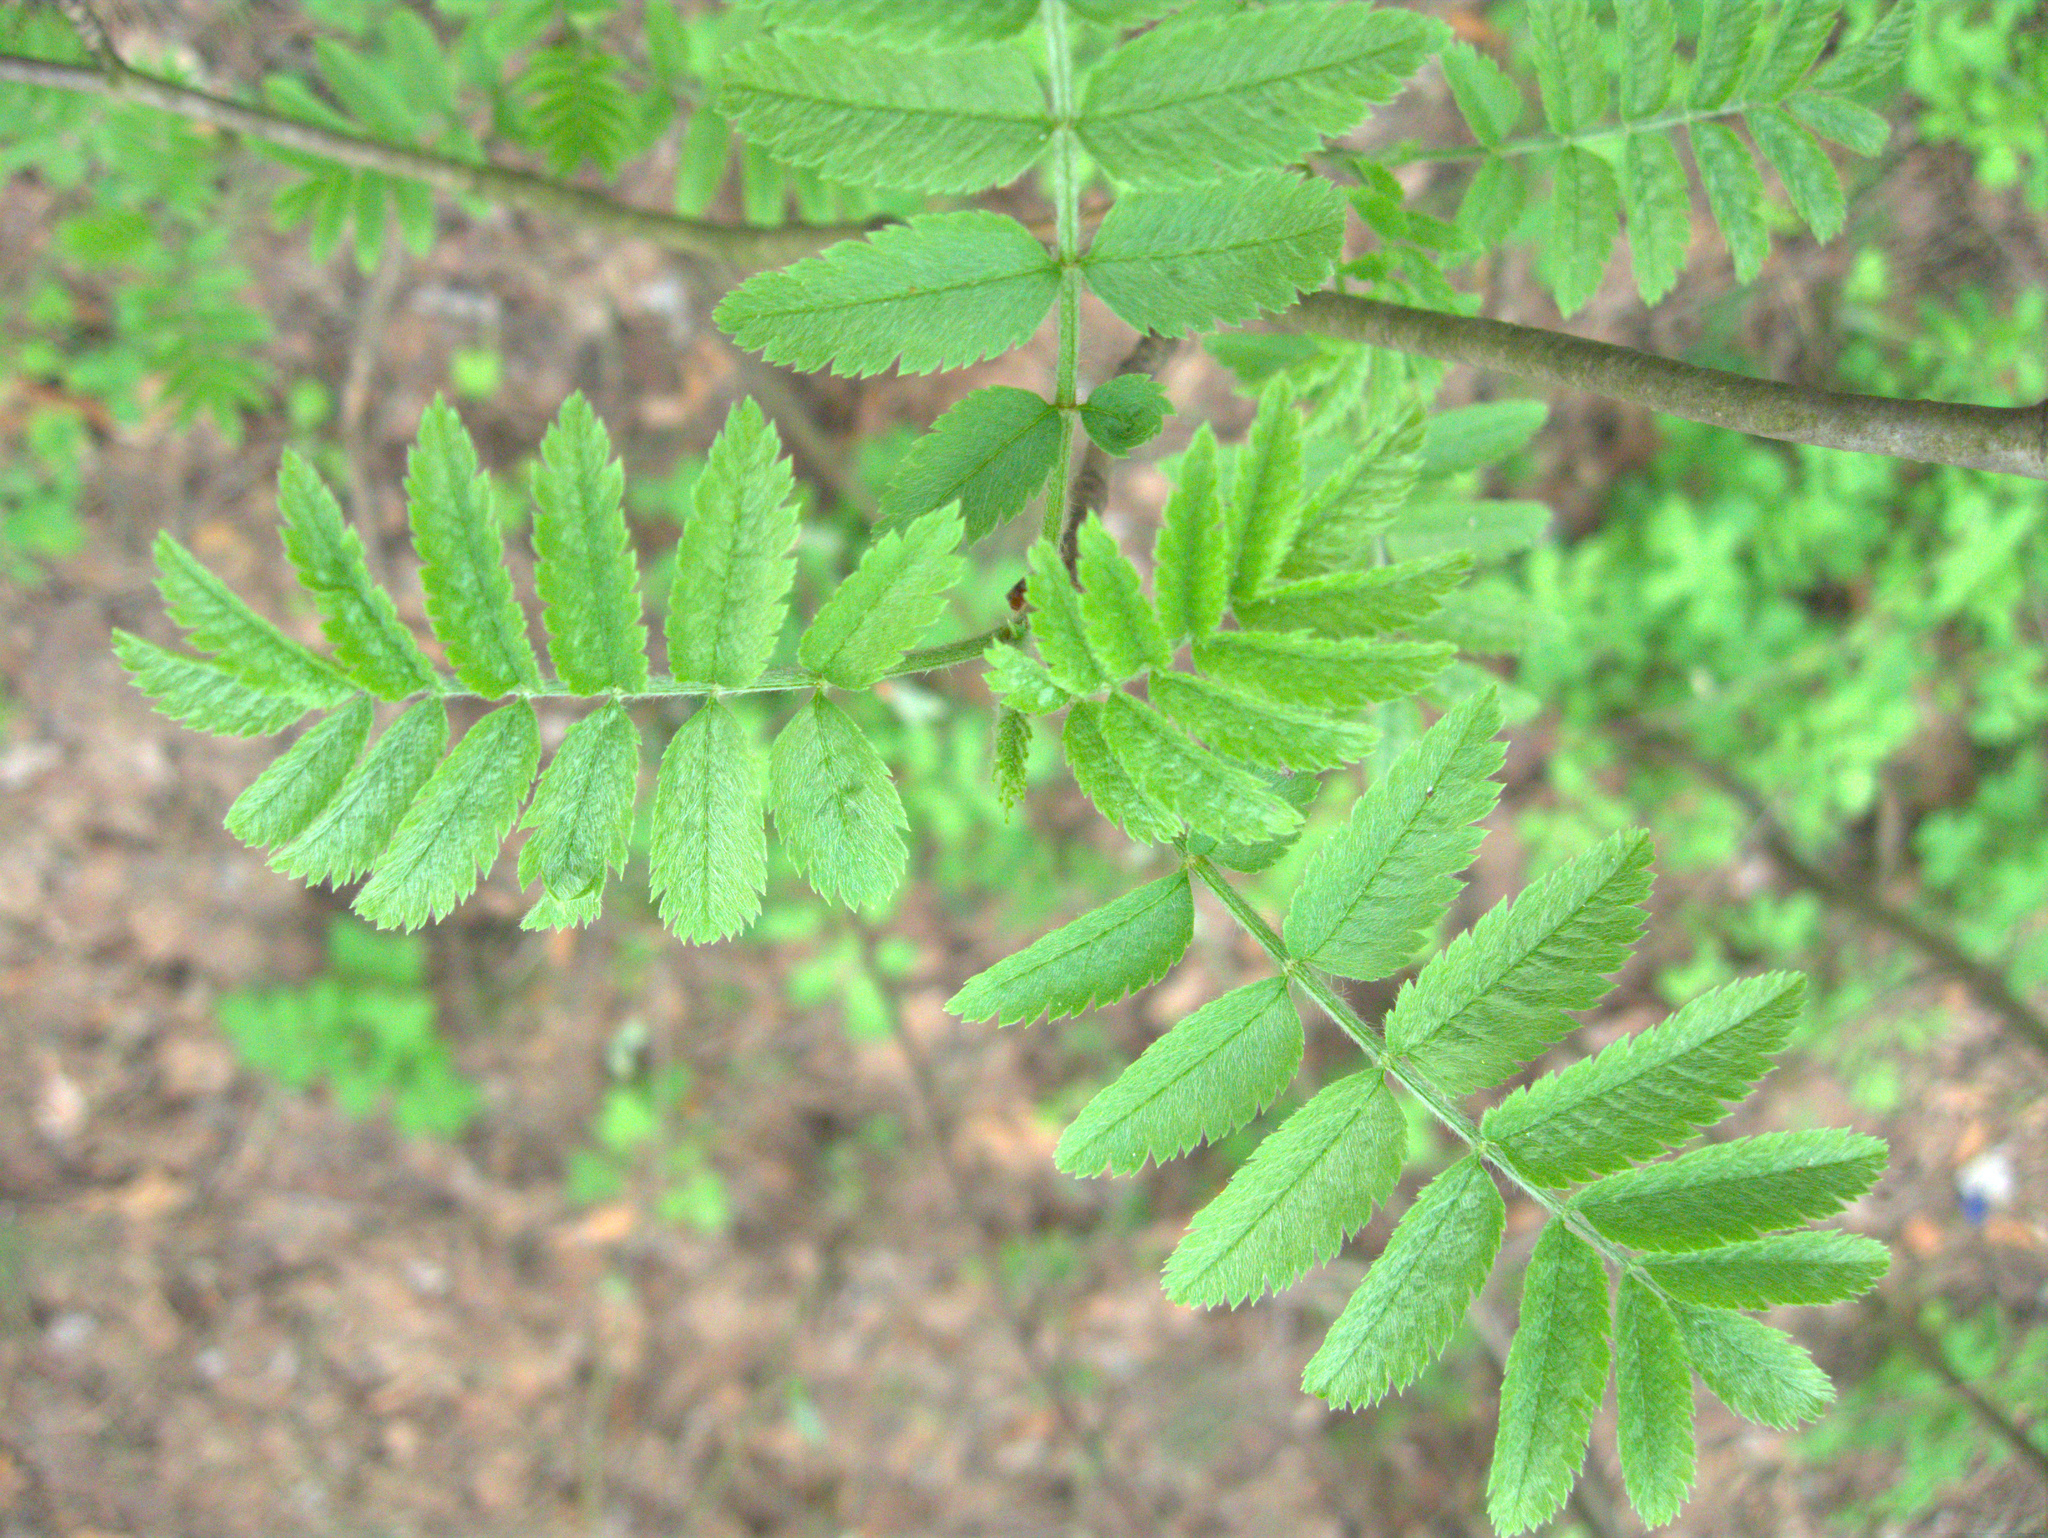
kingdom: Plantae
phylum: Tracheophyta
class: Magnoliopsida
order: Rosales
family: Rosaceae
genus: Sorbus
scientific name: Sorbus aucuparia
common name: Rowan
